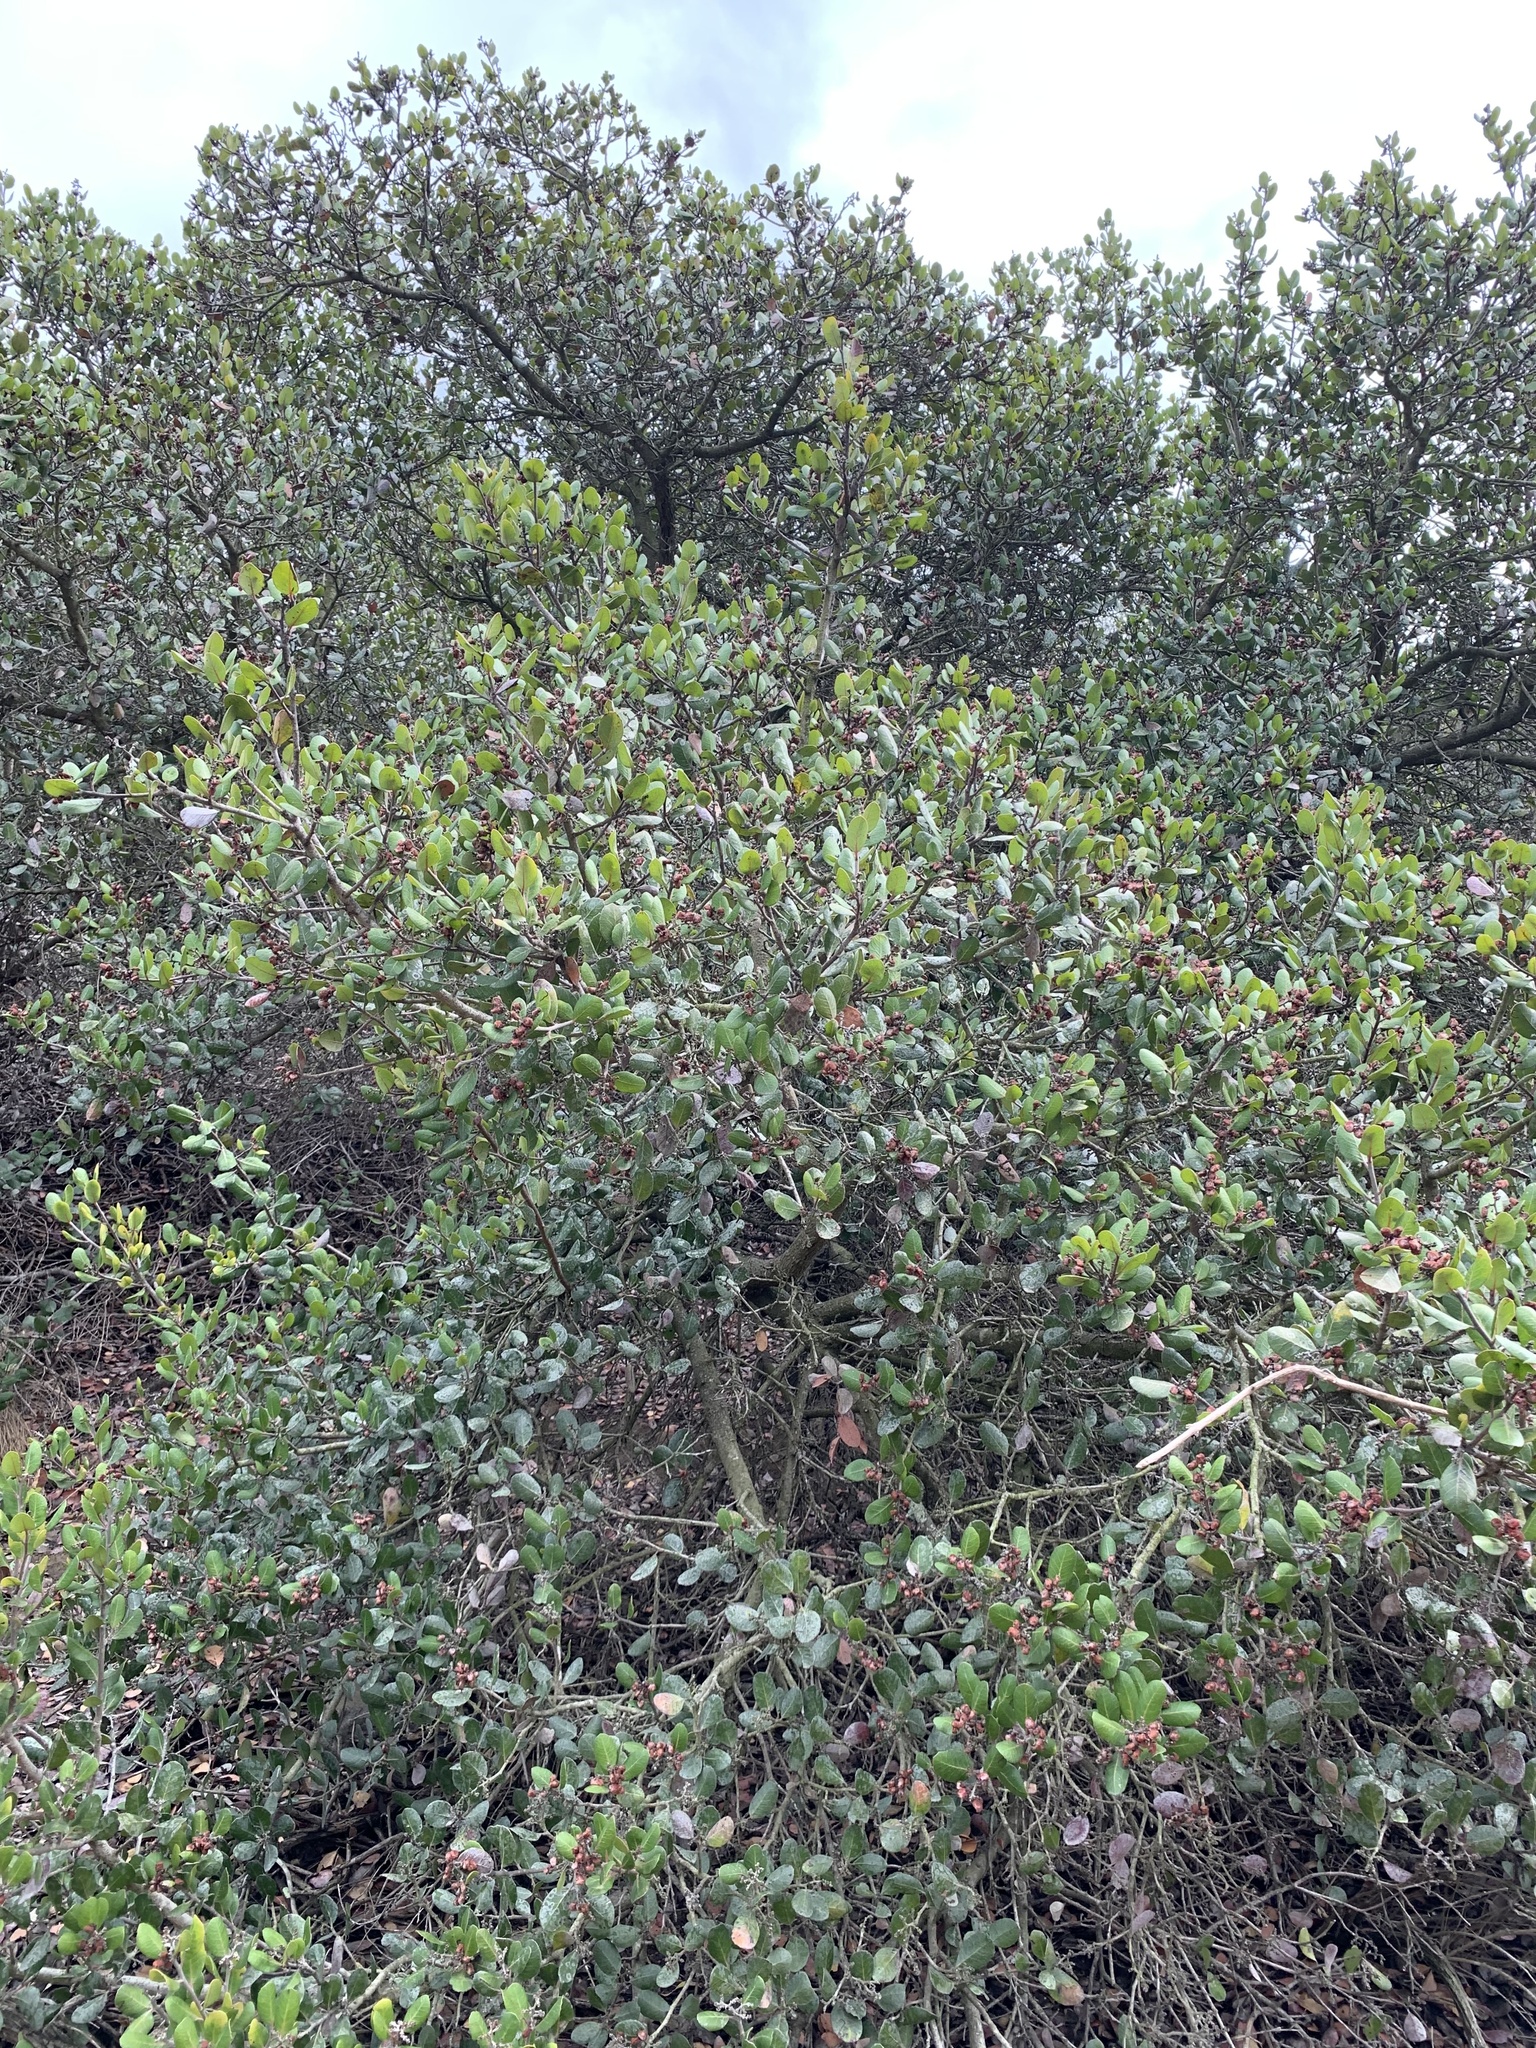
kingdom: Plantae
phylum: Tracheophyta
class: Magnoliopsida
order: Sapindales
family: Anacardiaceae
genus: Rhus
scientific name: Rhus integrifolia
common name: Lemonade sumac
